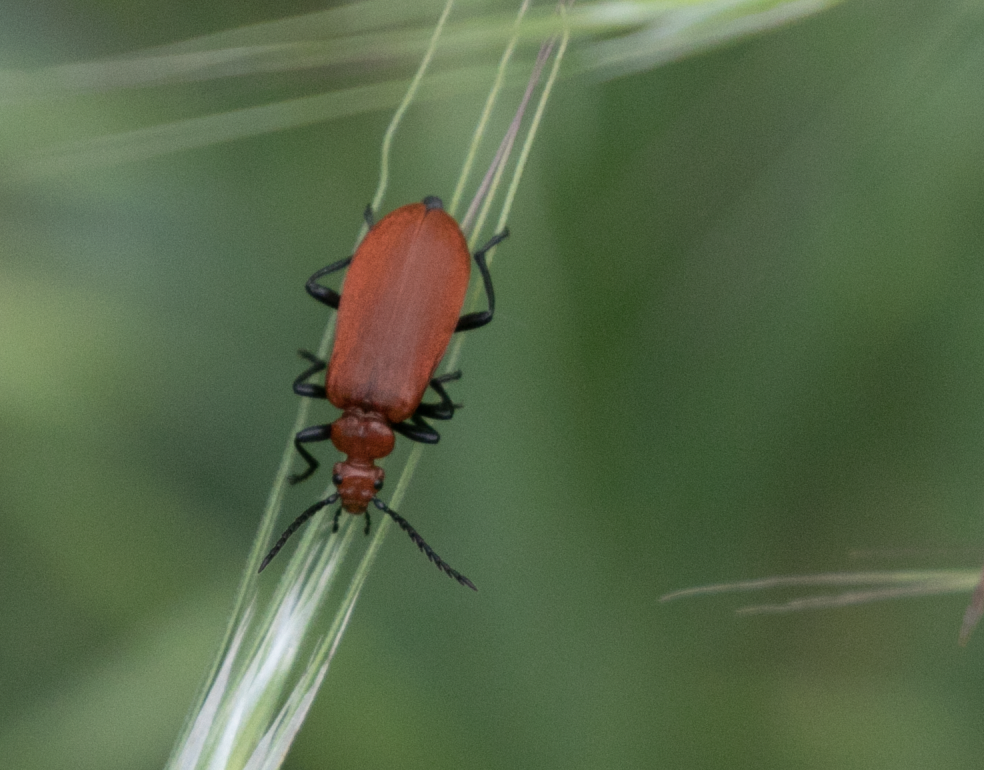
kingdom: Animalia
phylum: Arthropoda
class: Insecta
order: Coleoptera
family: Pyrochroidae
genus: Pyrochroa
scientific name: Pyrochroa serraticornis
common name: Red-headed cardinal beetle
